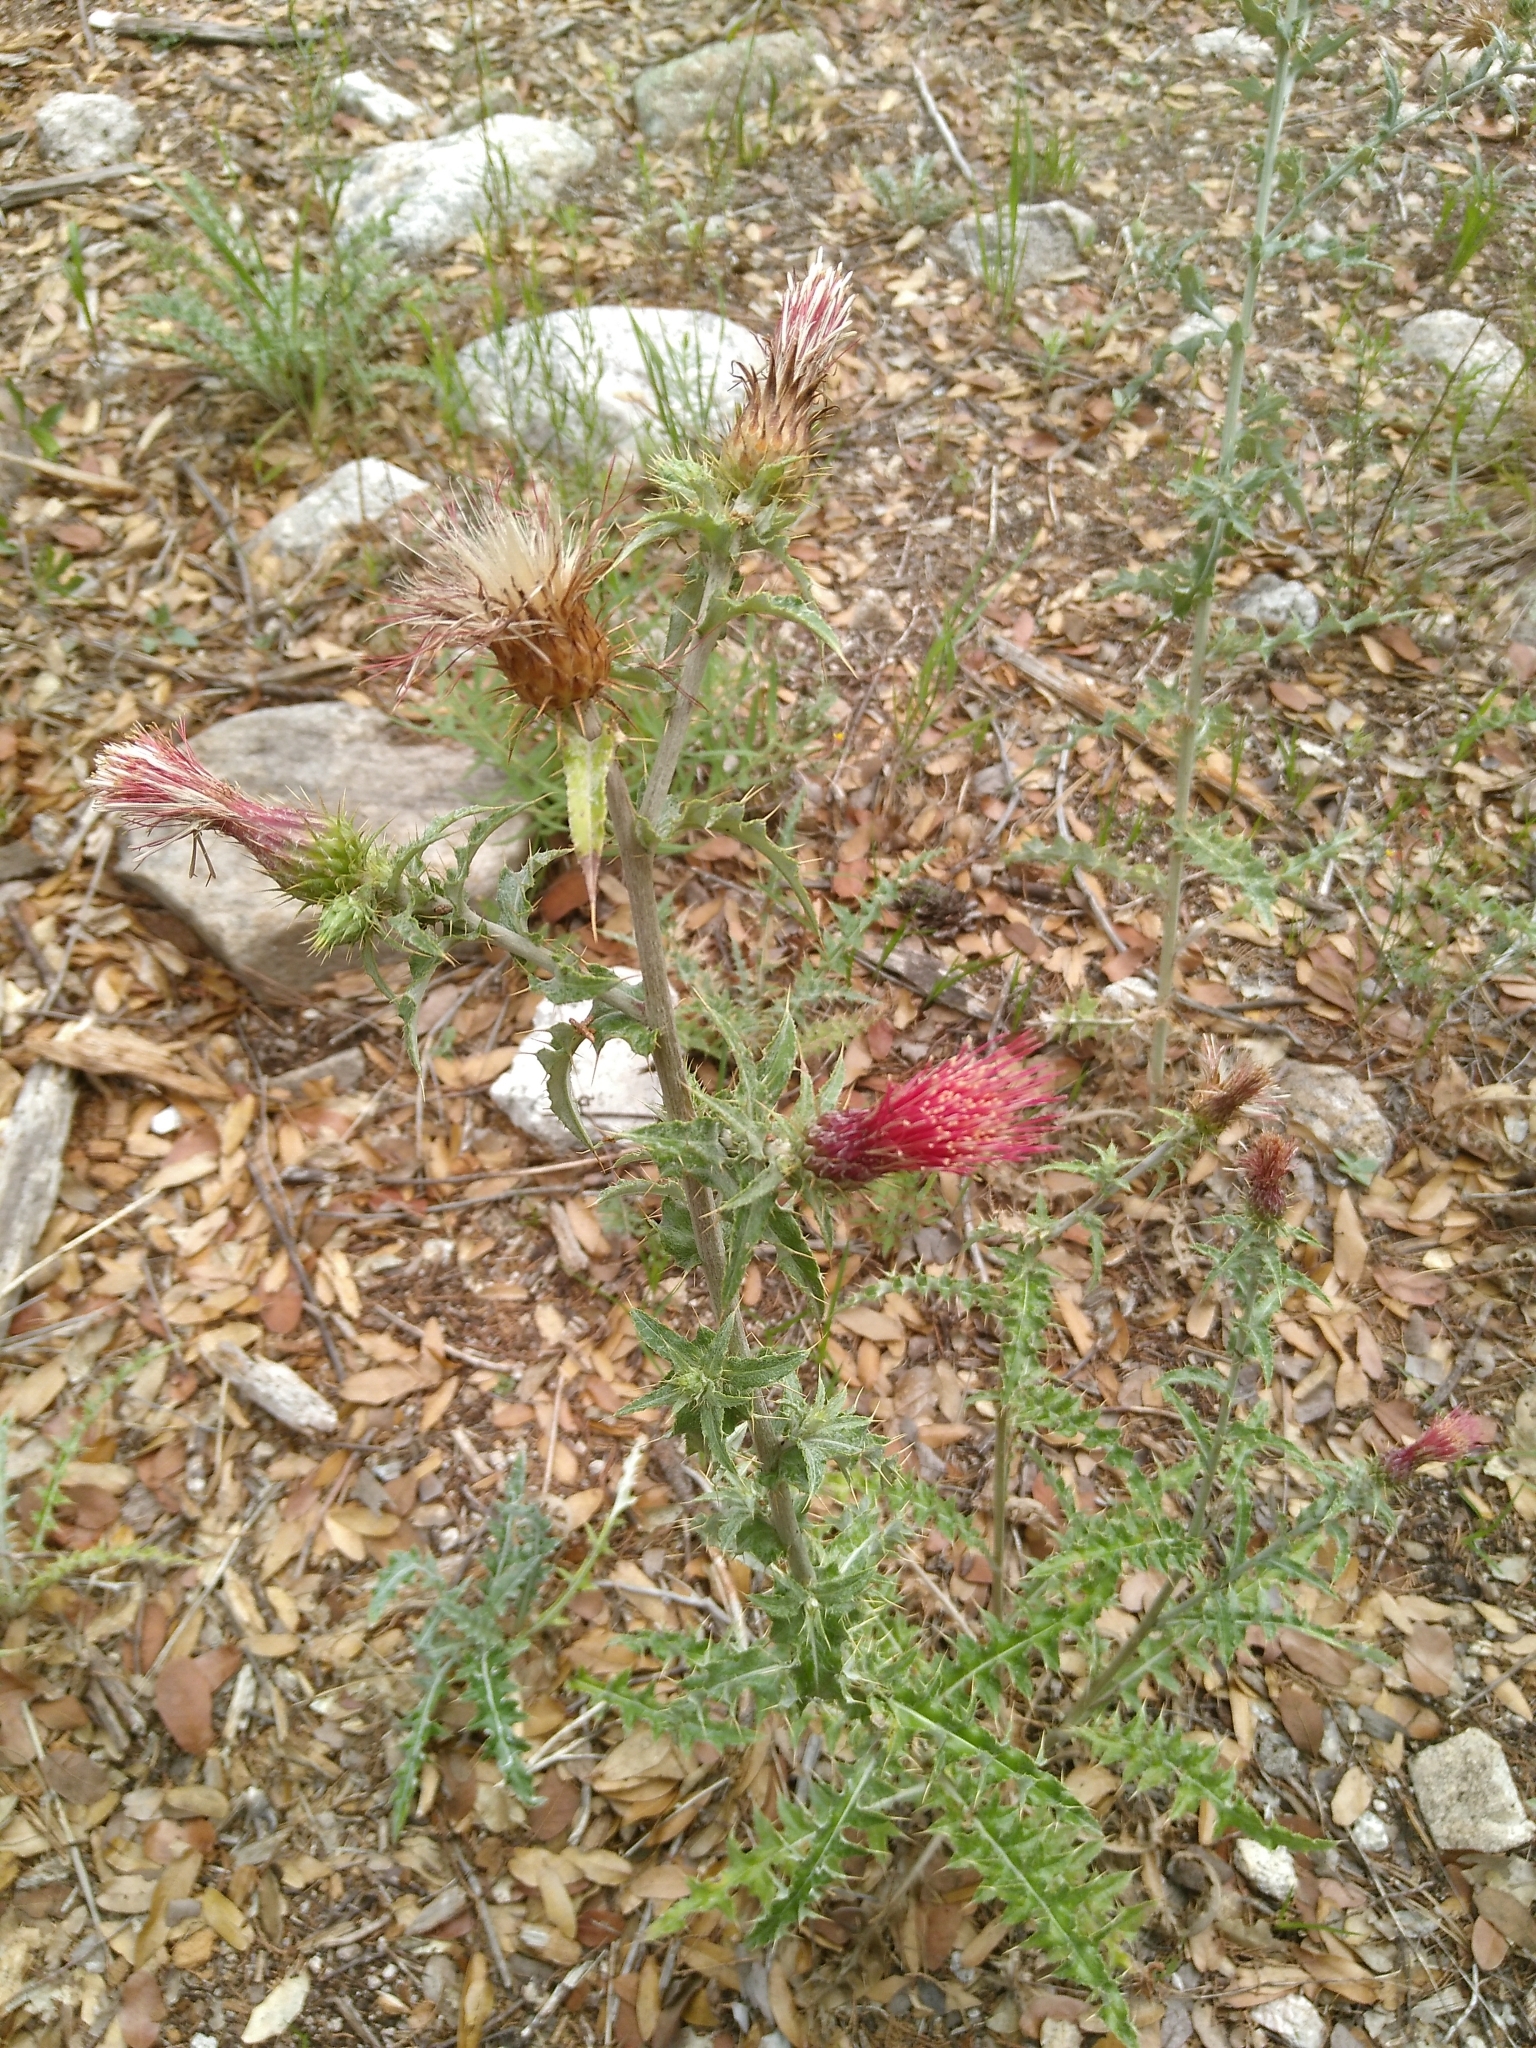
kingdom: Plantae
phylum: Tracheophyta
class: Magnoliopsida
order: Asterales
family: Asteraceae
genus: Cirsium
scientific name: Cirsium arizonicum
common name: Arizona thistle
